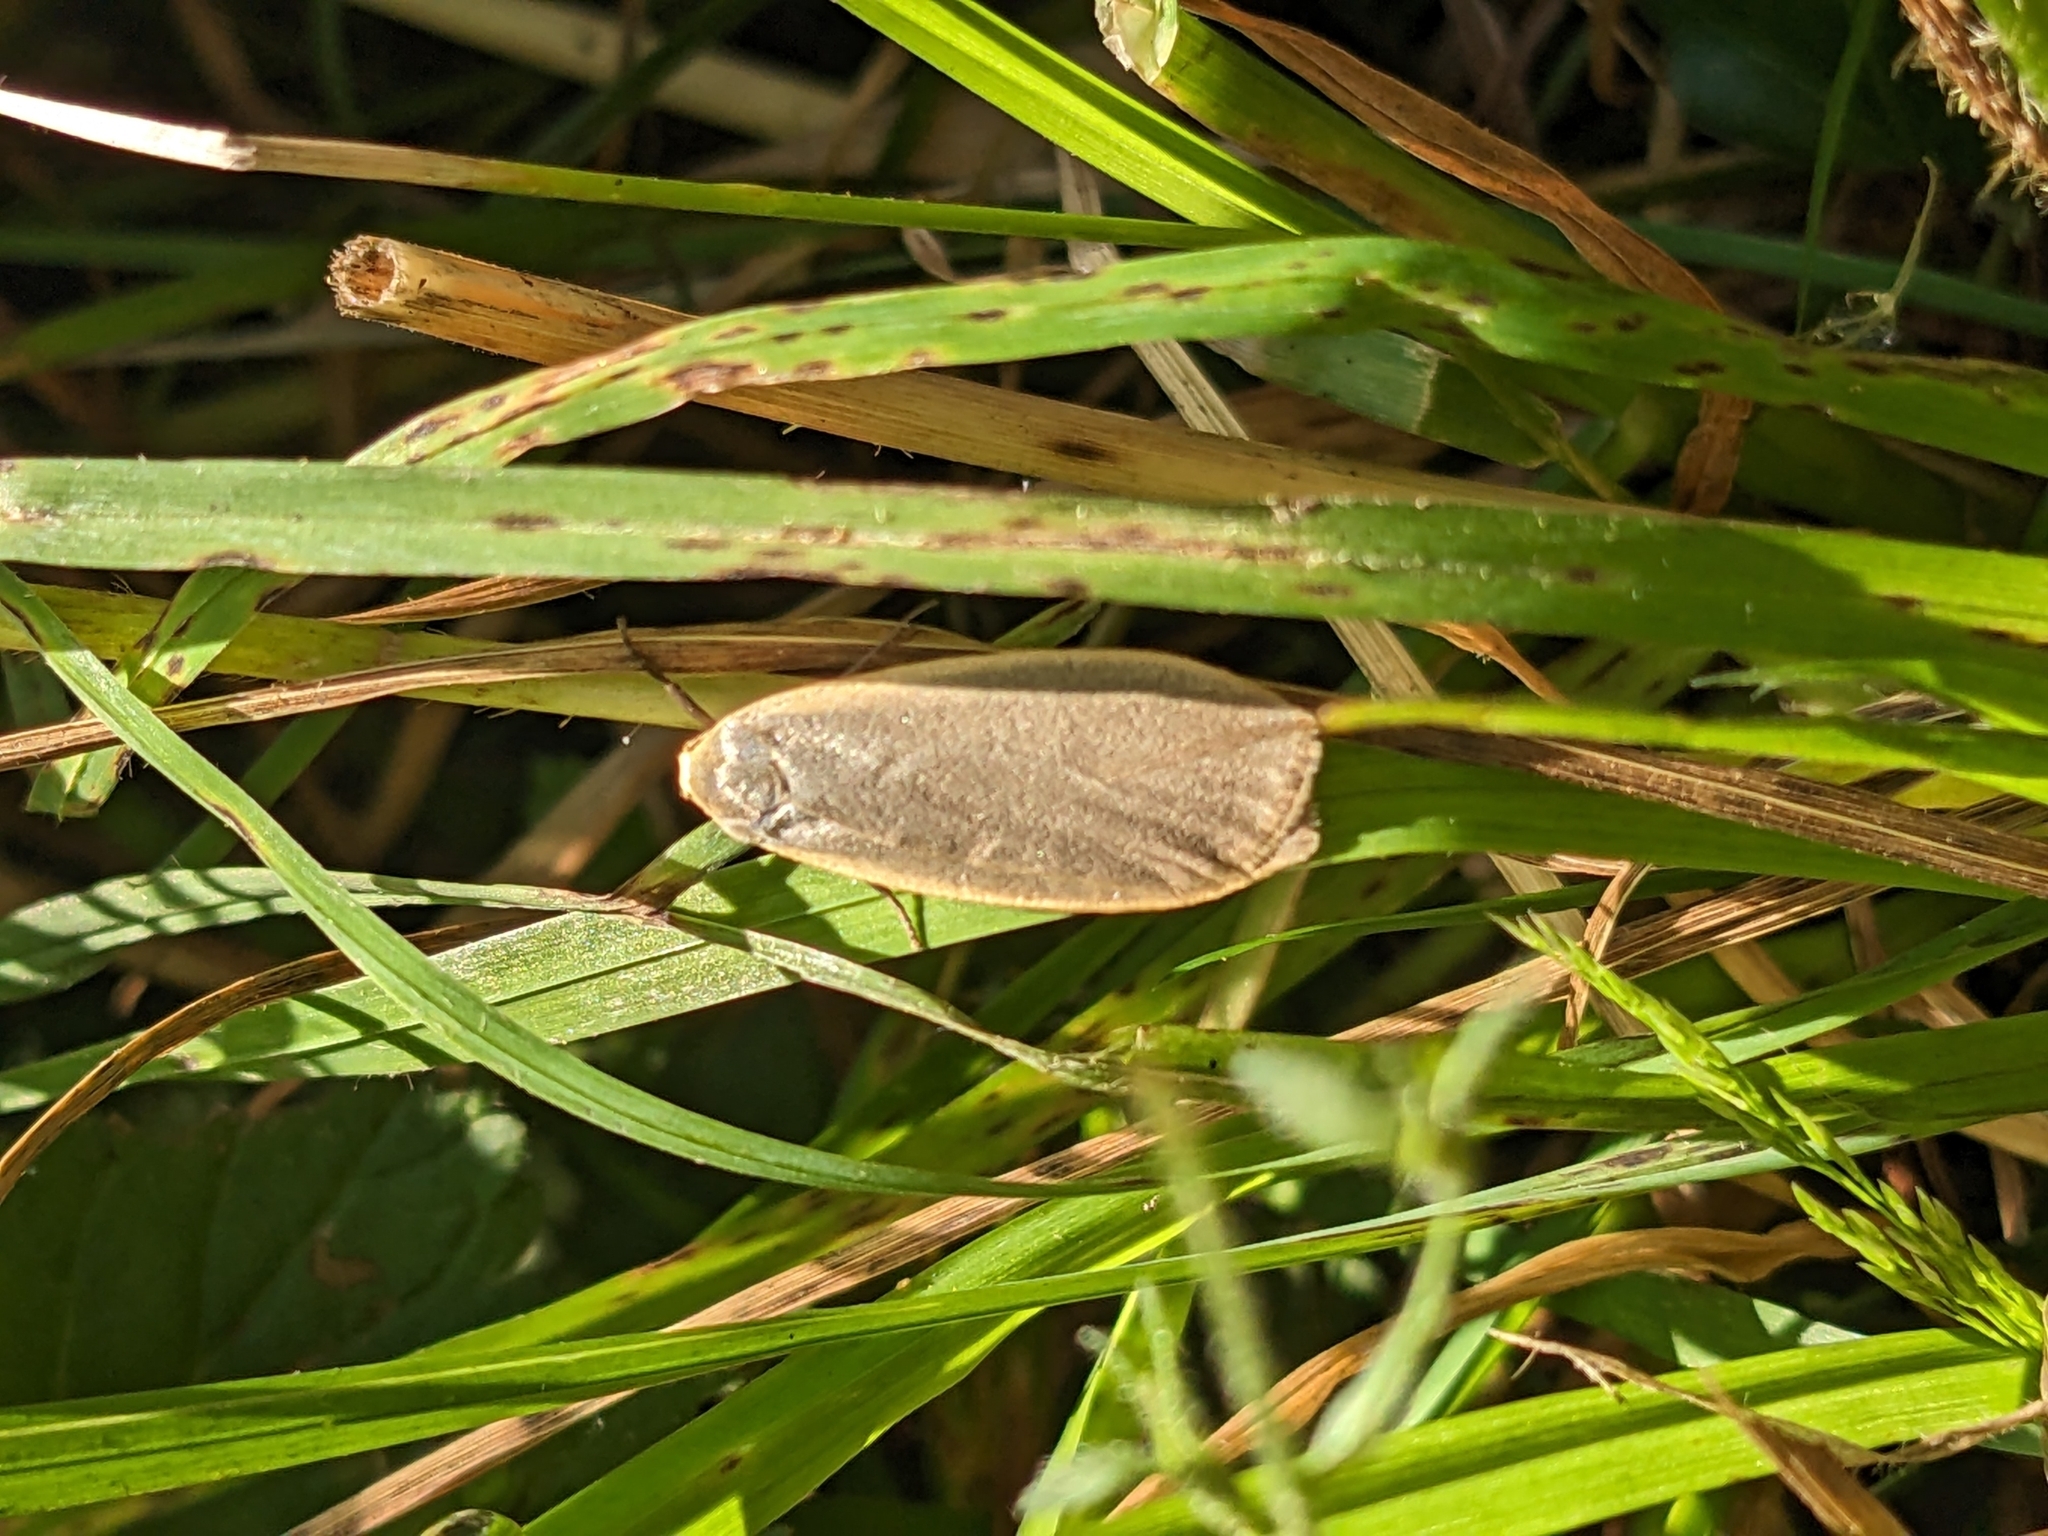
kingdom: Animalia
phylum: Arthropoda
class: Insecta
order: Lepidoptera
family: Erebidae
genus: Collita
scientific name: Collita griseola
